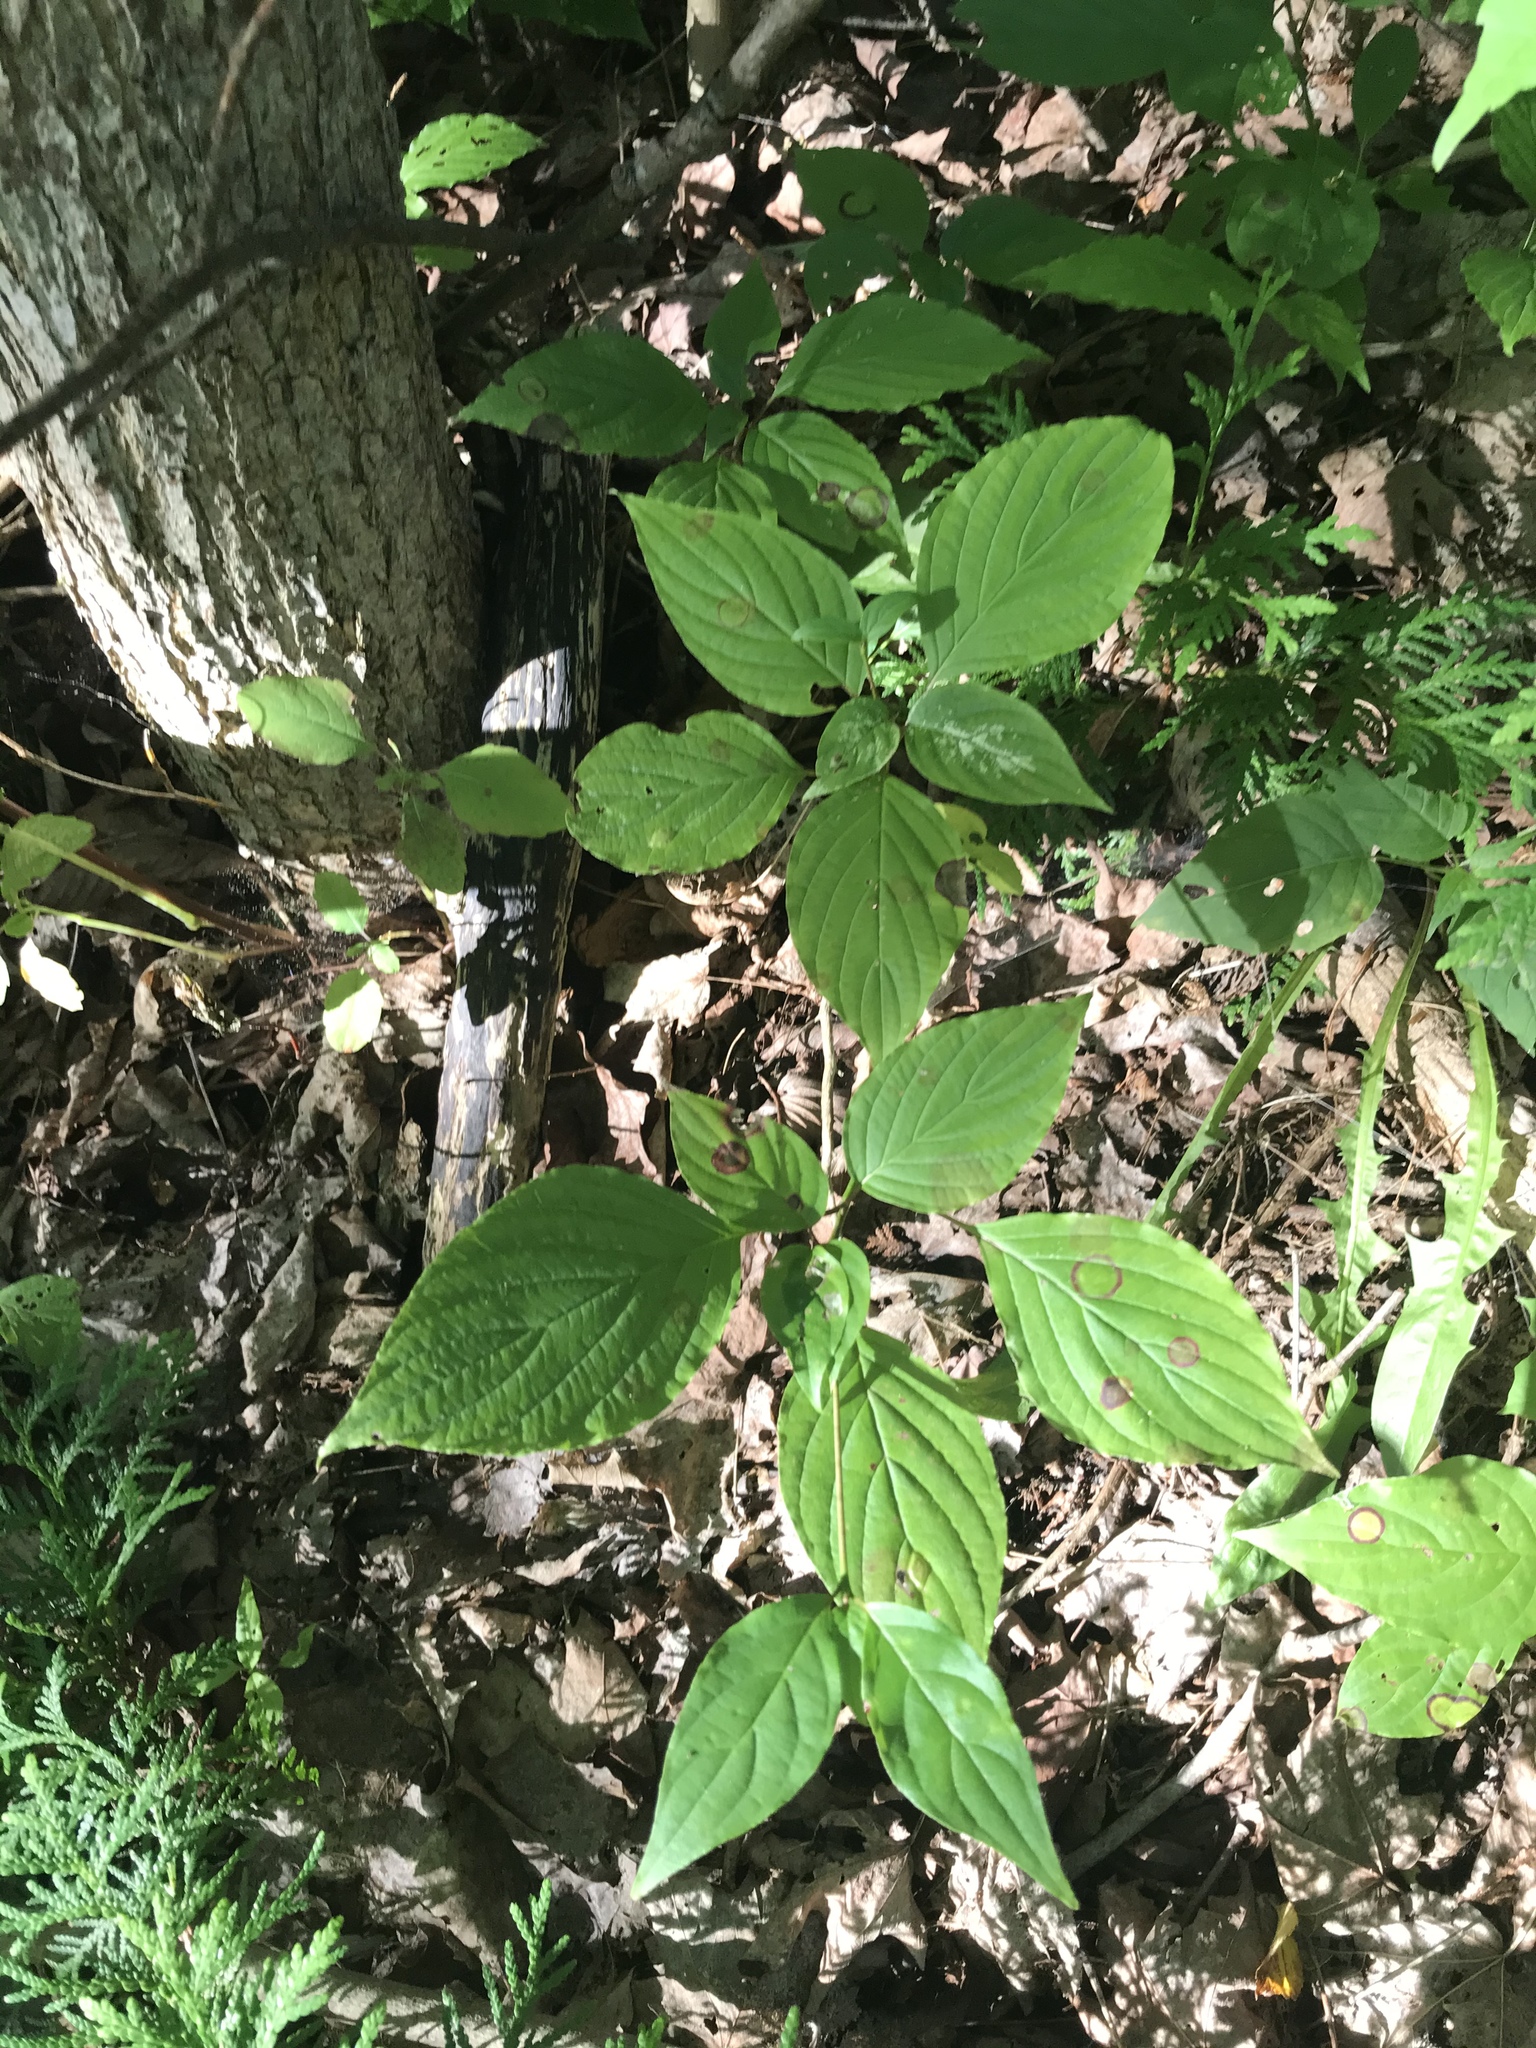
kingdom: Plantae
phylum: Tracheophyta
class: Magnoliopsida
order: Cornales
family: Cornaceae
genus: Cornus
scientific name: Cornus alternifolia
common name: Pagoda dogwood
